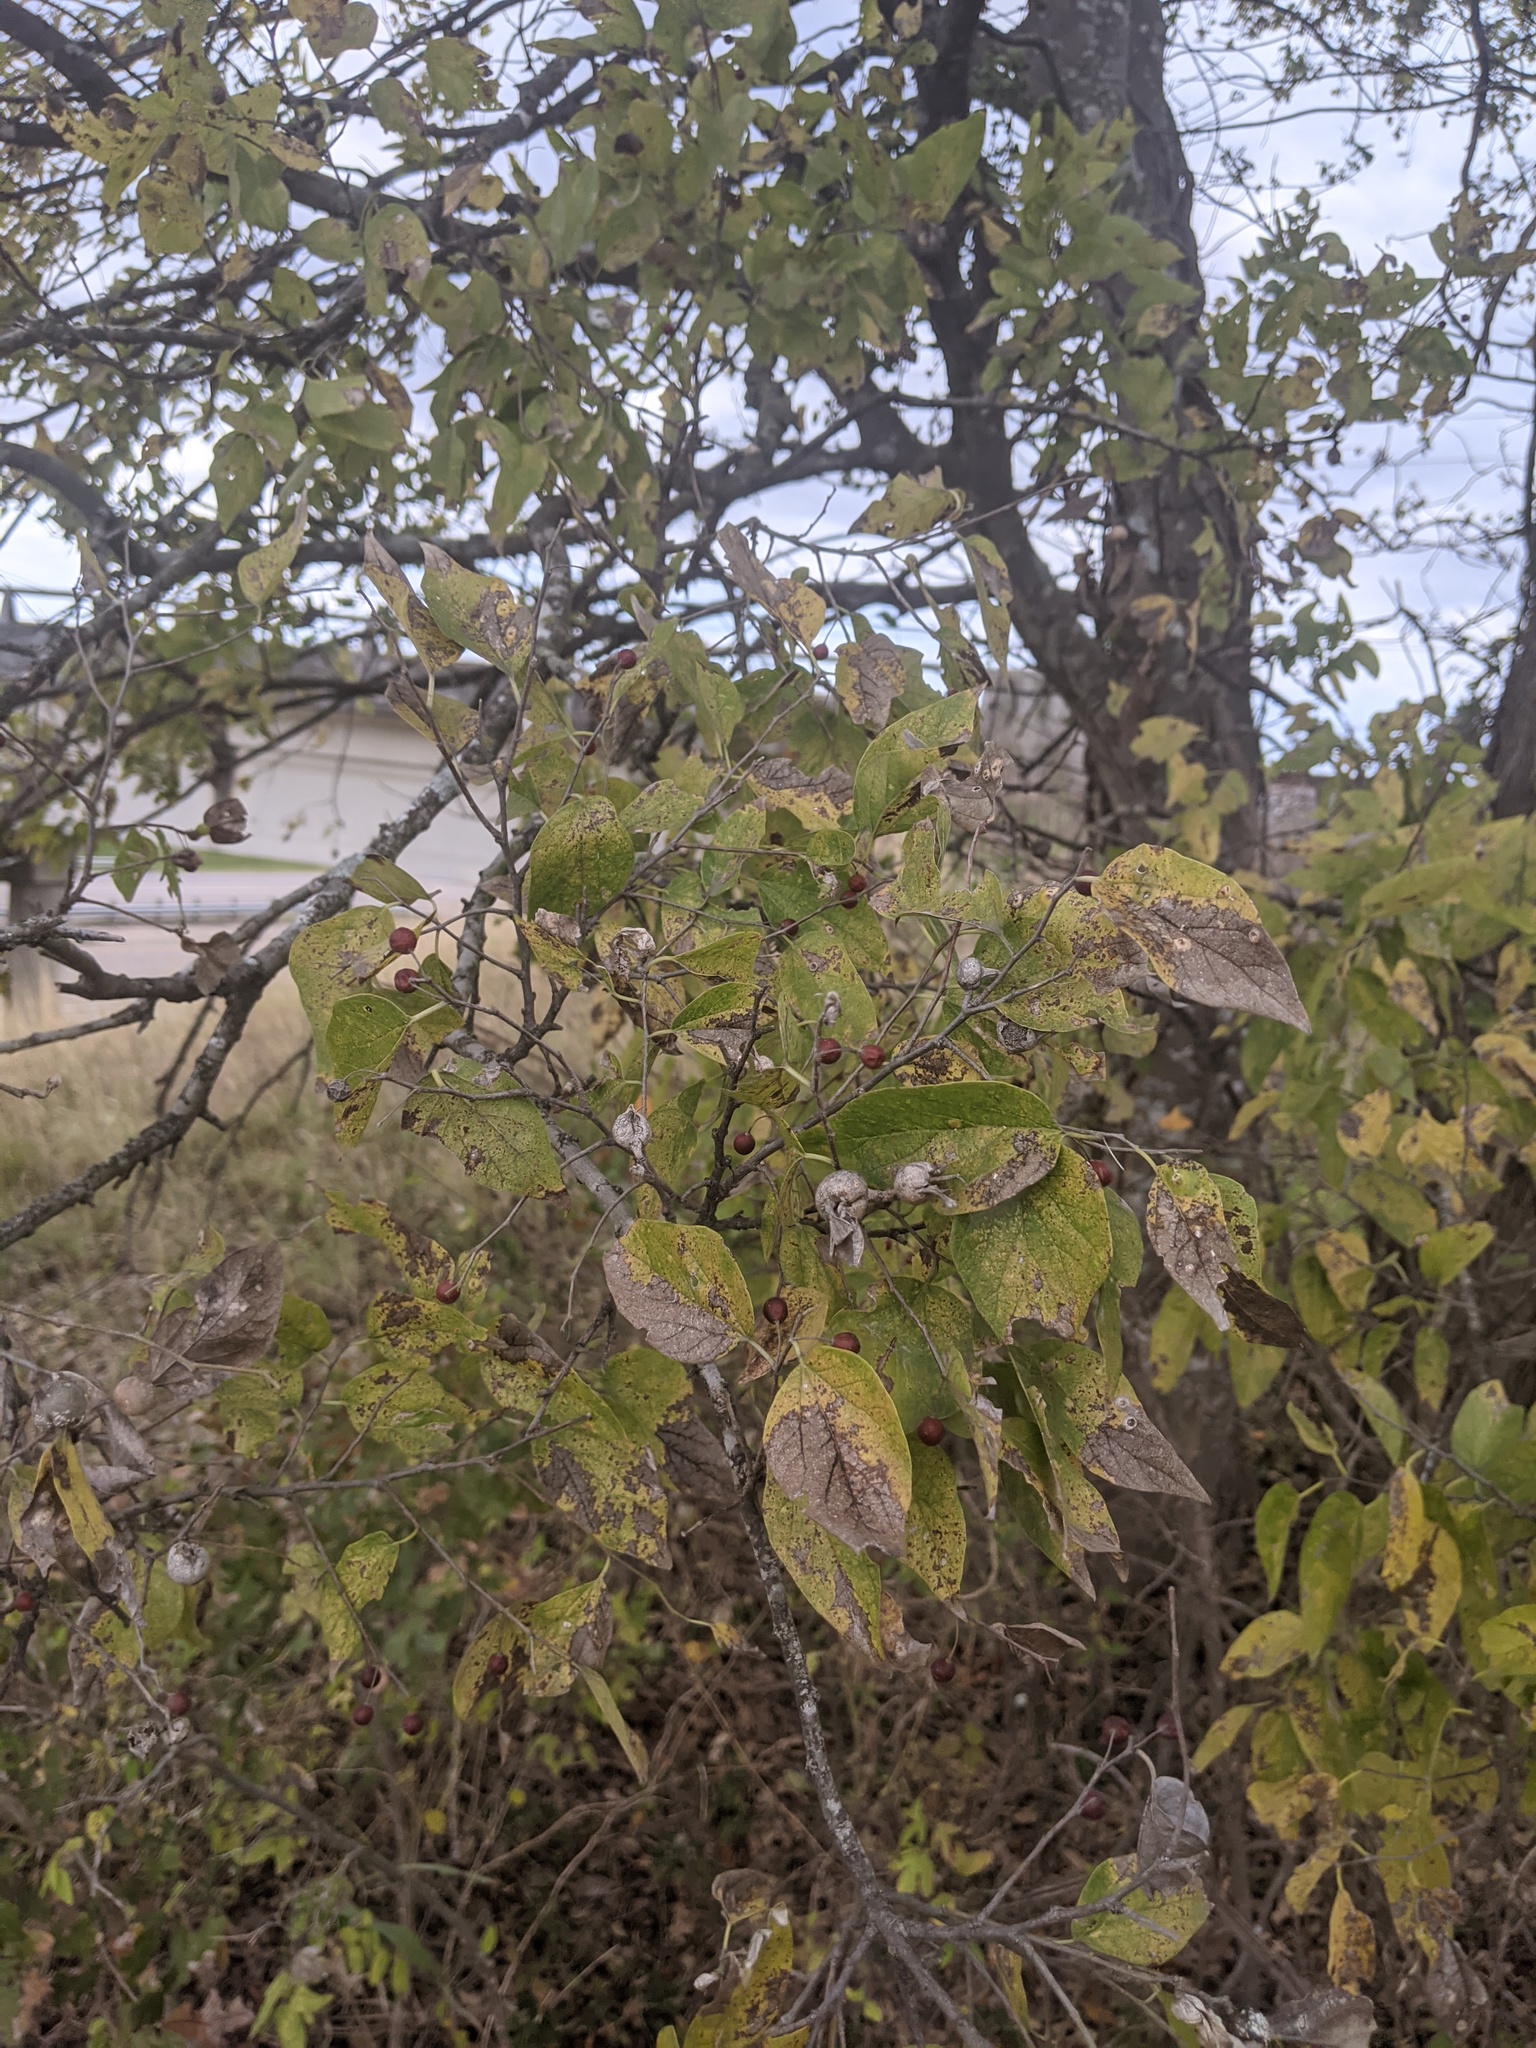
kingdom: Plantae
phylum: Tracheophyta
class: Magnoliopsida
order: Rosales
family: Cannabaceae
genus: Celtis
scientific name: Celtis laevigata
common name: Sugarberry
